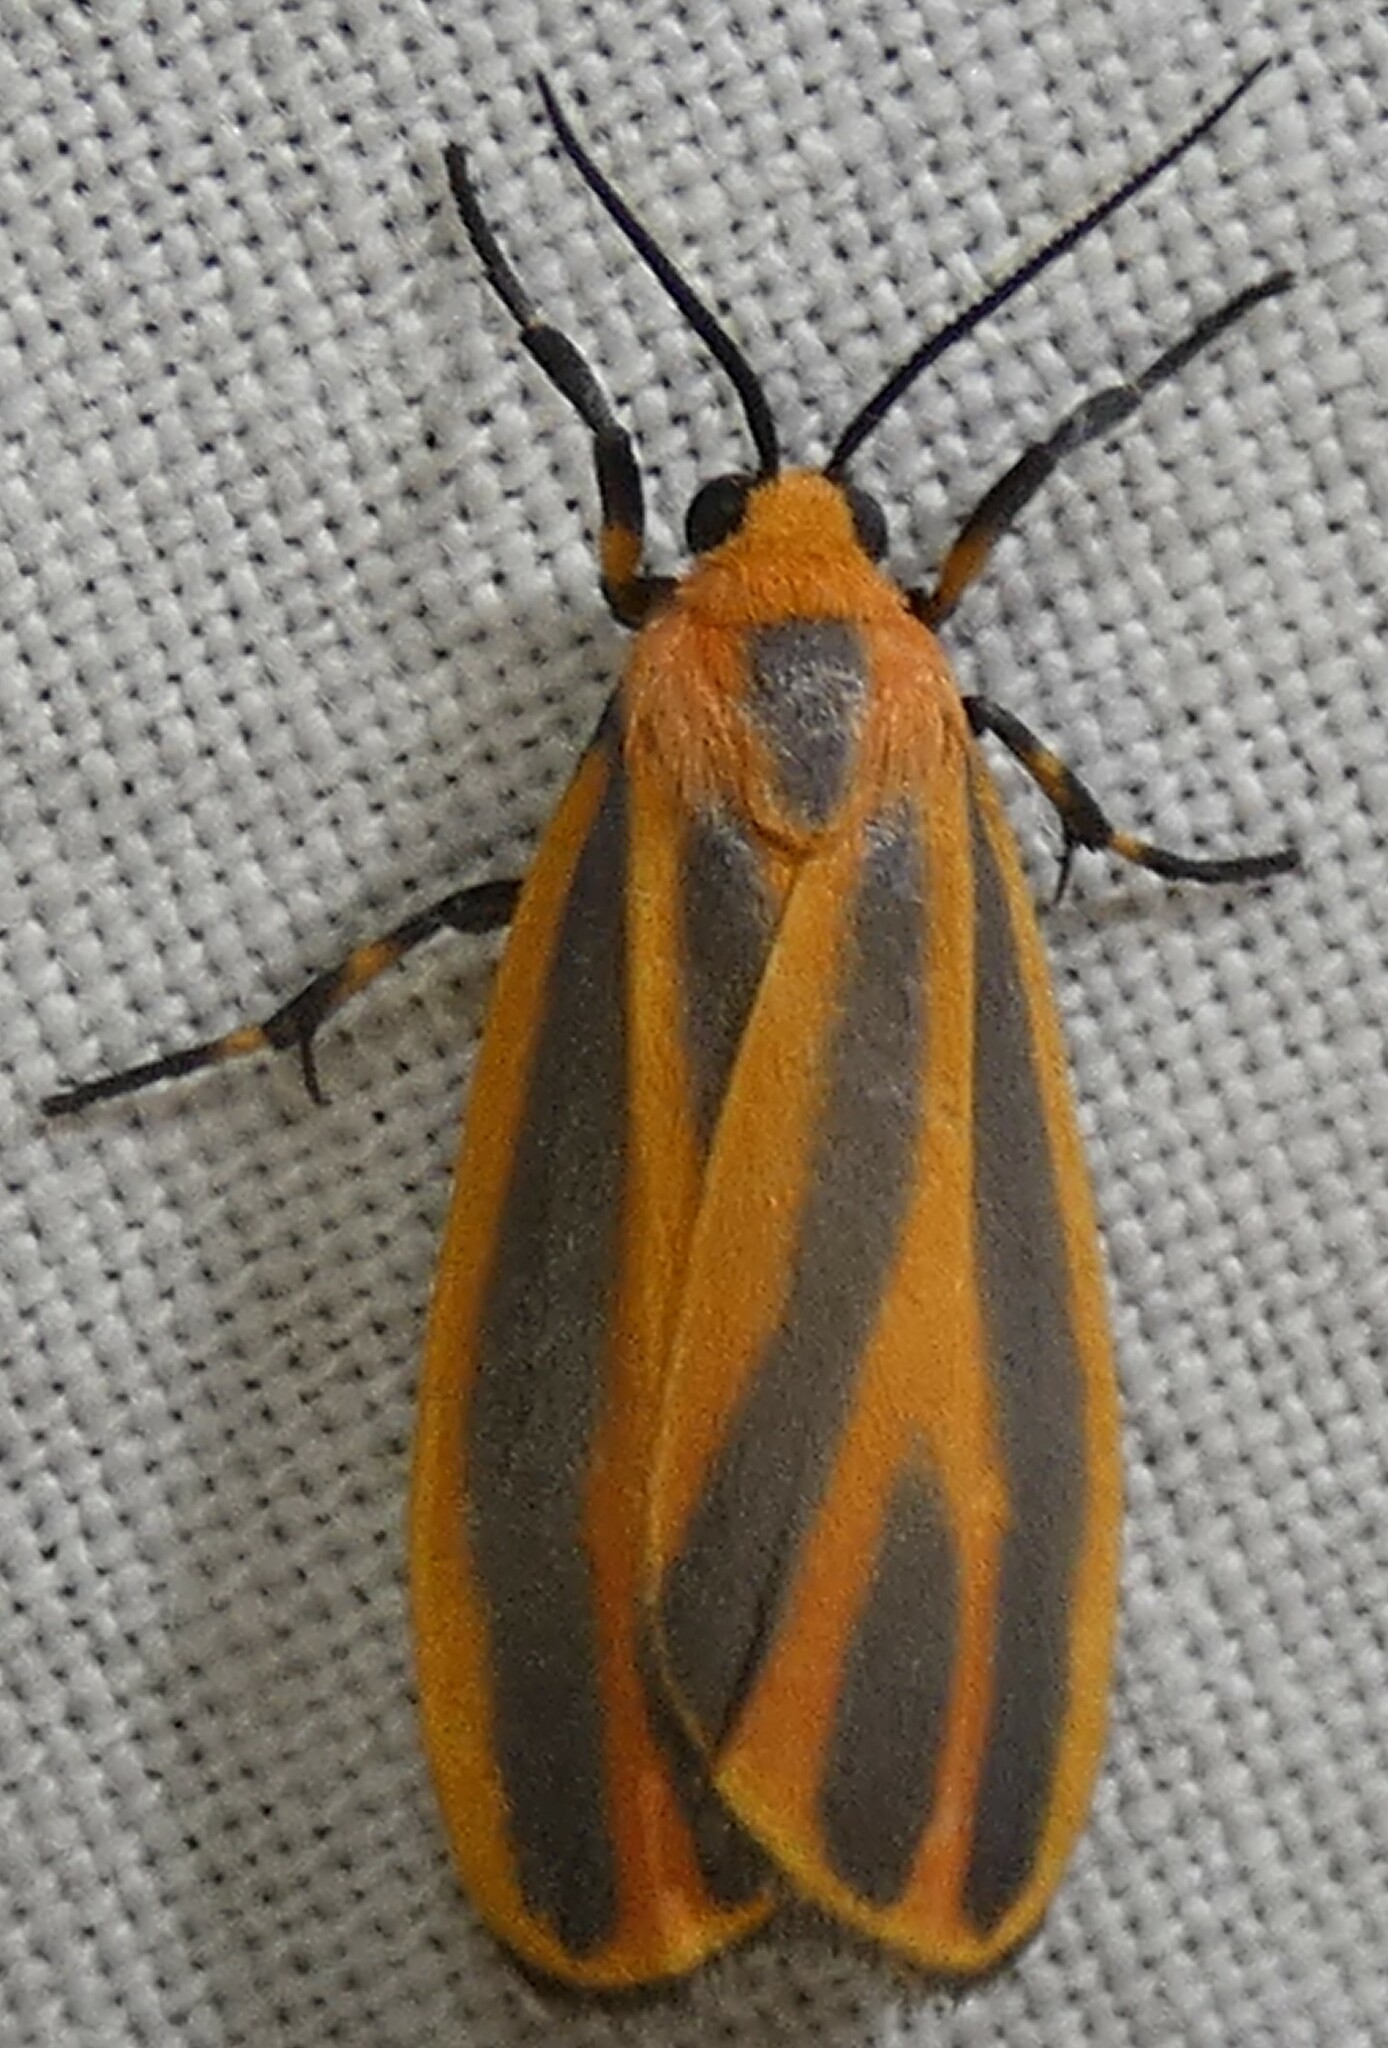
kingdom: Animalia
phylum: Arthropoda
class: Insecta
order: Lepidoptera
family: Erebidae
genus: Hypoprepia
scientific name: Hypoprepia fucosa
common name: Painted lichen moth
